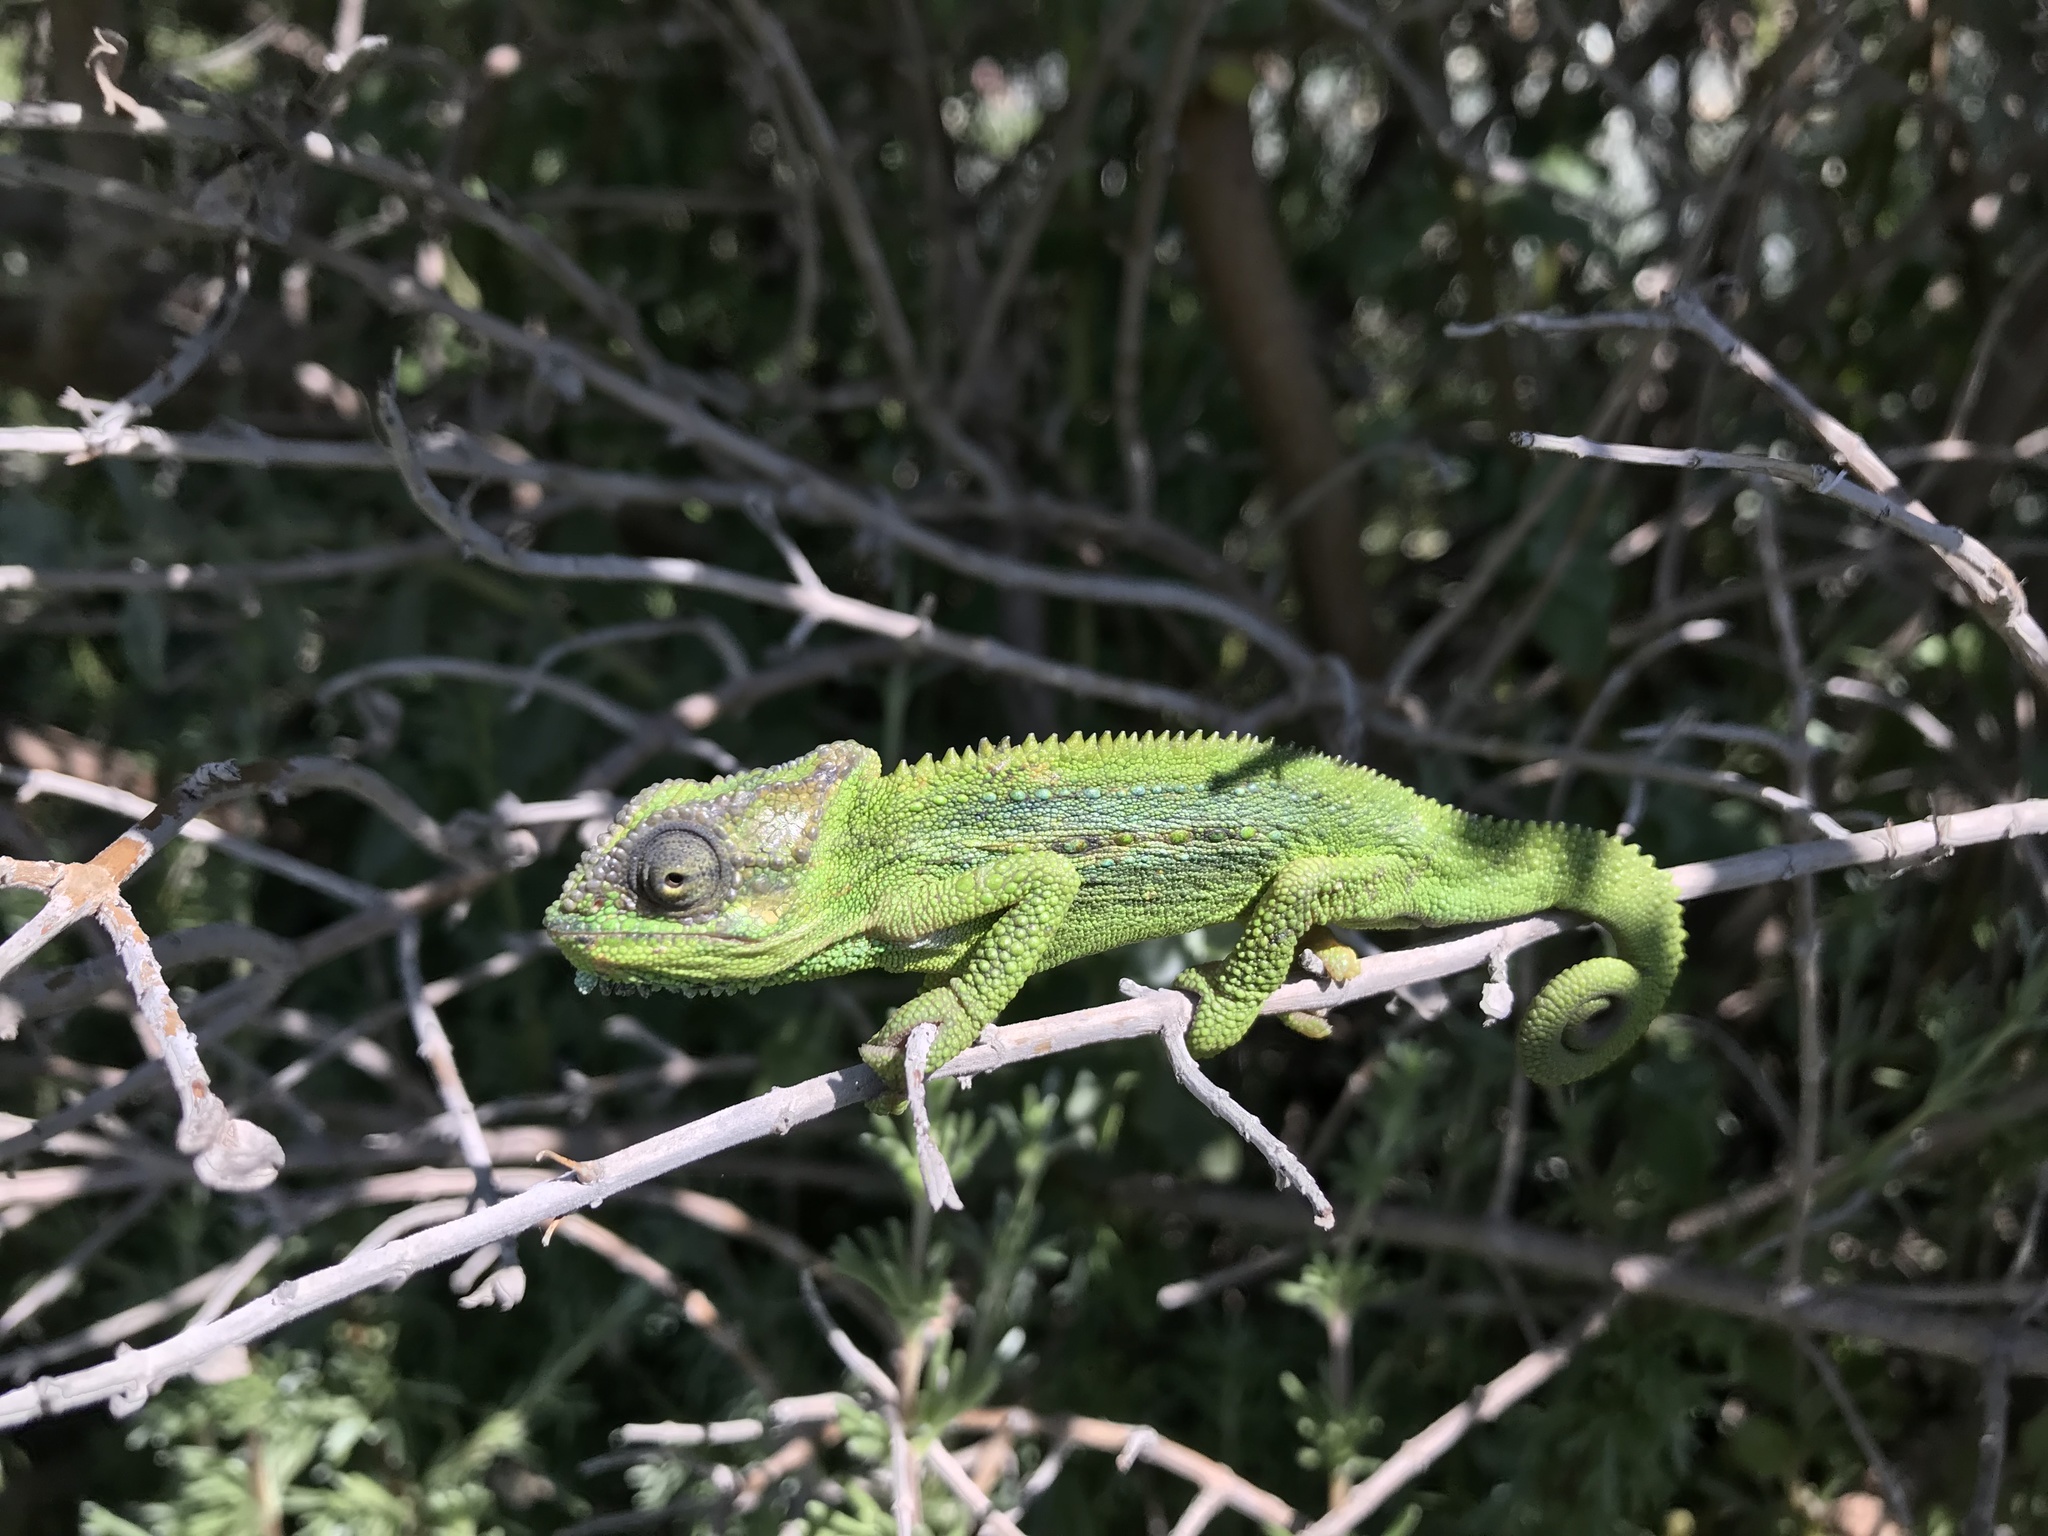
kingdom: Animalia
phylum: Chordata
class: Squamata
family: Chamaeleonidae
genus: Bradypodion
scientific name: Bradypodion pumilum
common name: Cape dwarf chameleon
